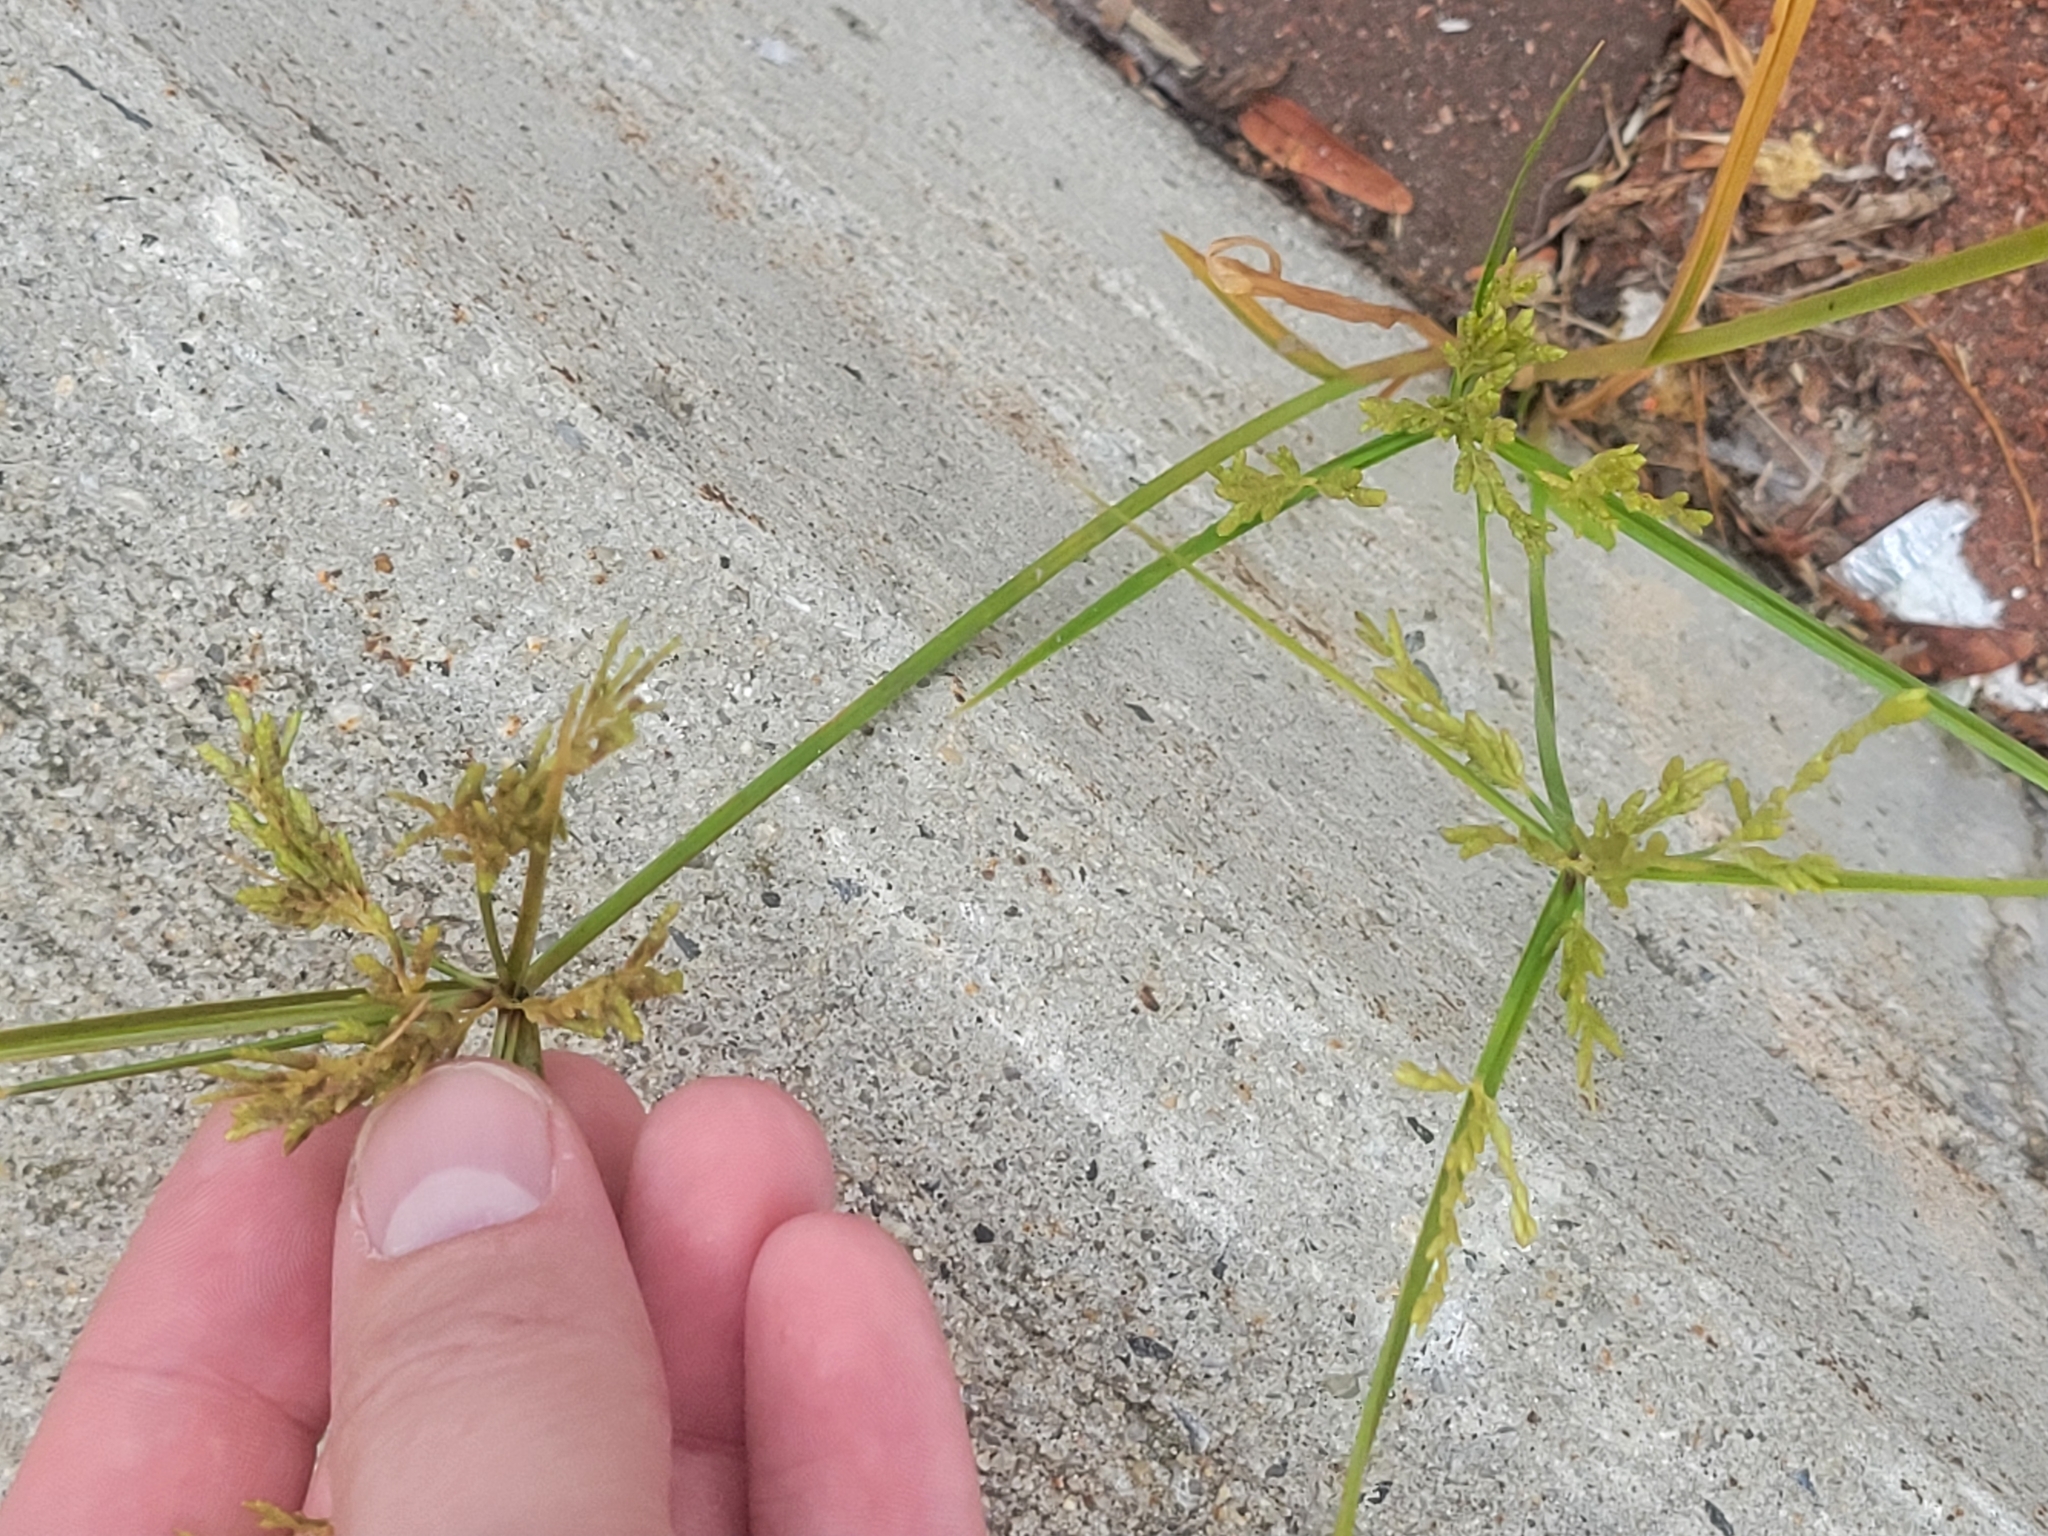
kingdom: Plantae
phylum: Tracheophyta
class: Liliopsida
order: Poales
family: Cyperaceae
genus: Cyperus
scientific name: Cyperus iria
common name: Ricefield flatsedge
